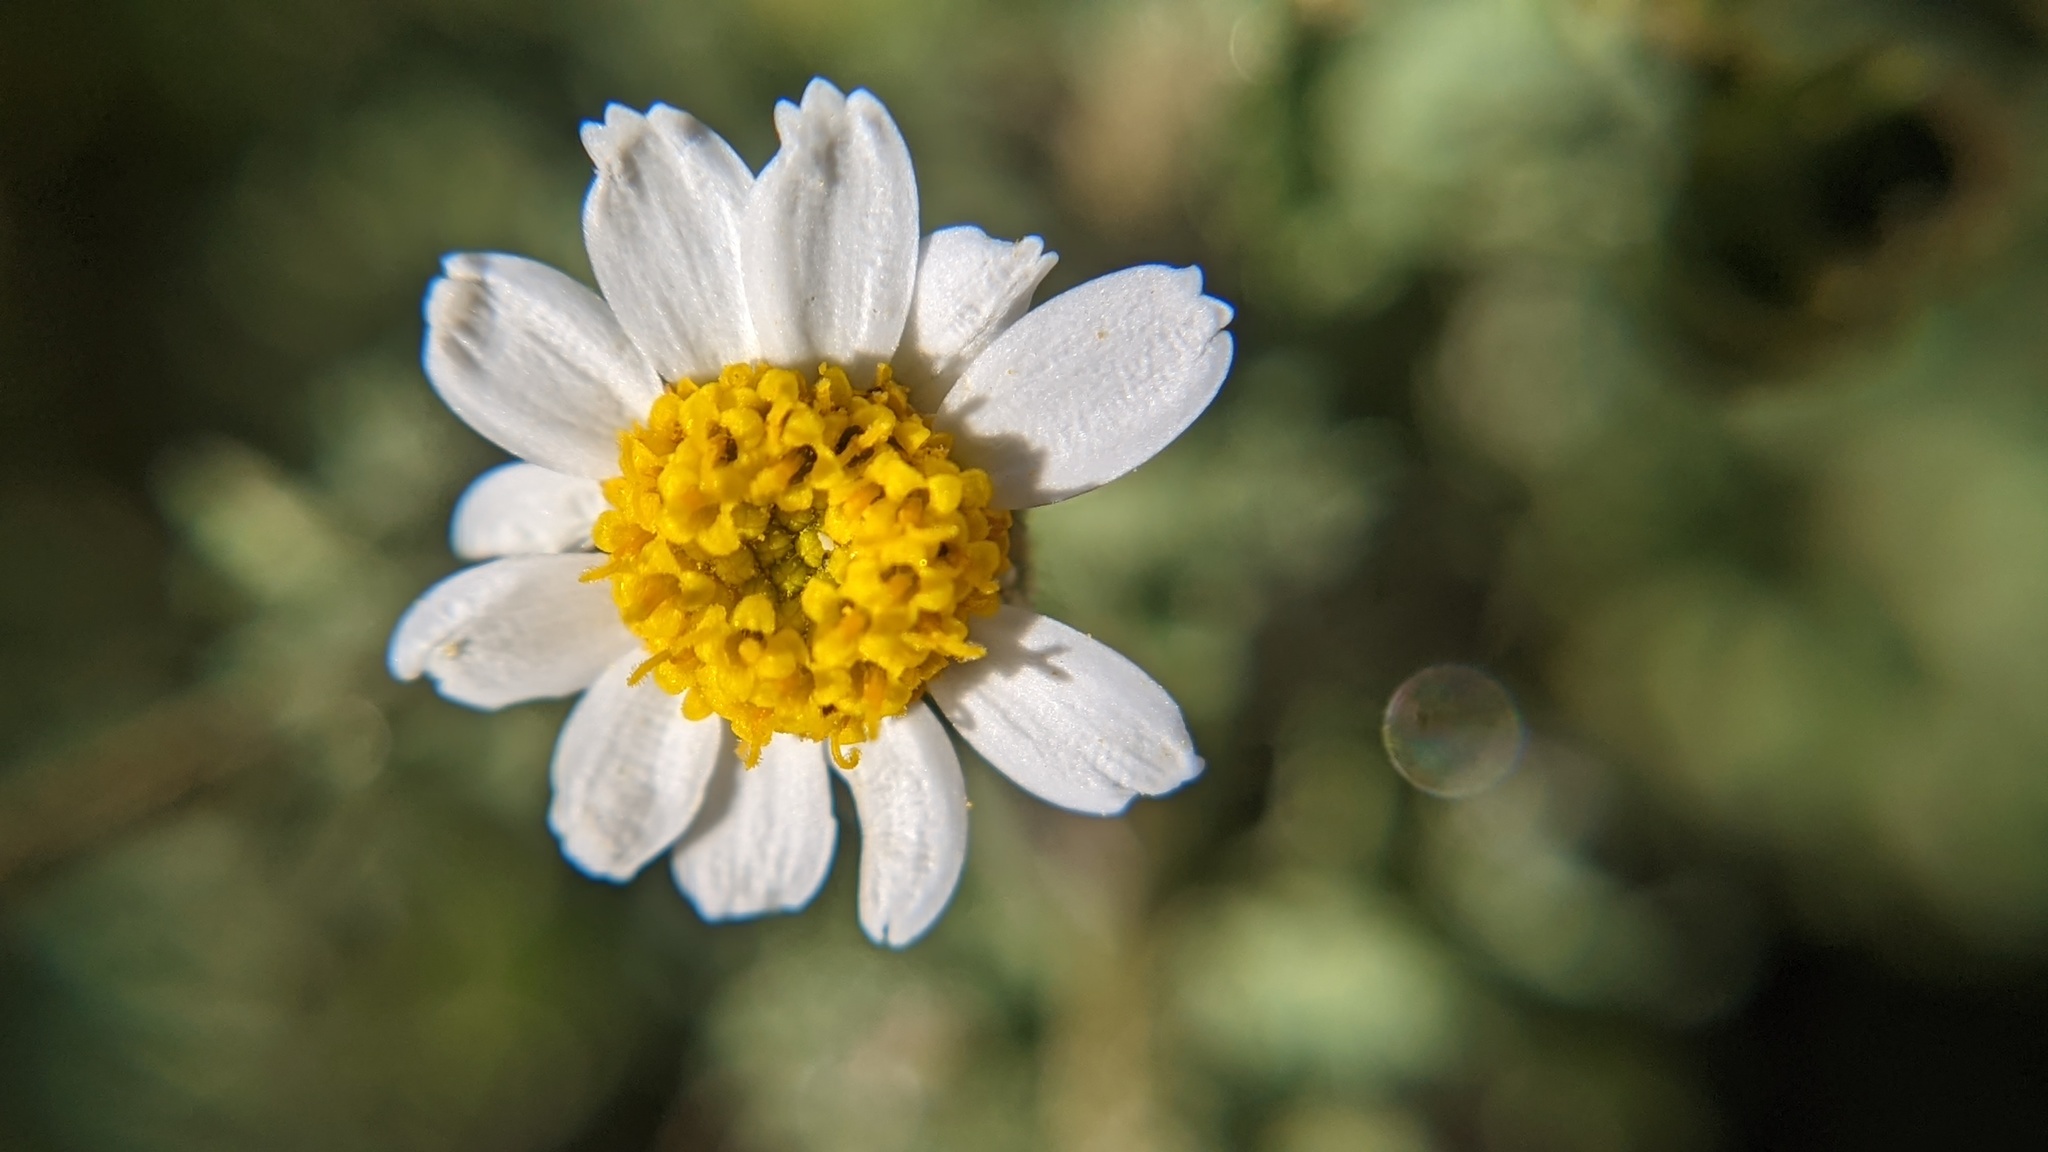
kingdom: Plantae
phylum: Tracheophyta
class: Magnoliopsida
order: Asterales
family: Asteraceae
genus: Laphamia
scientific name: Laphamia emoryi
